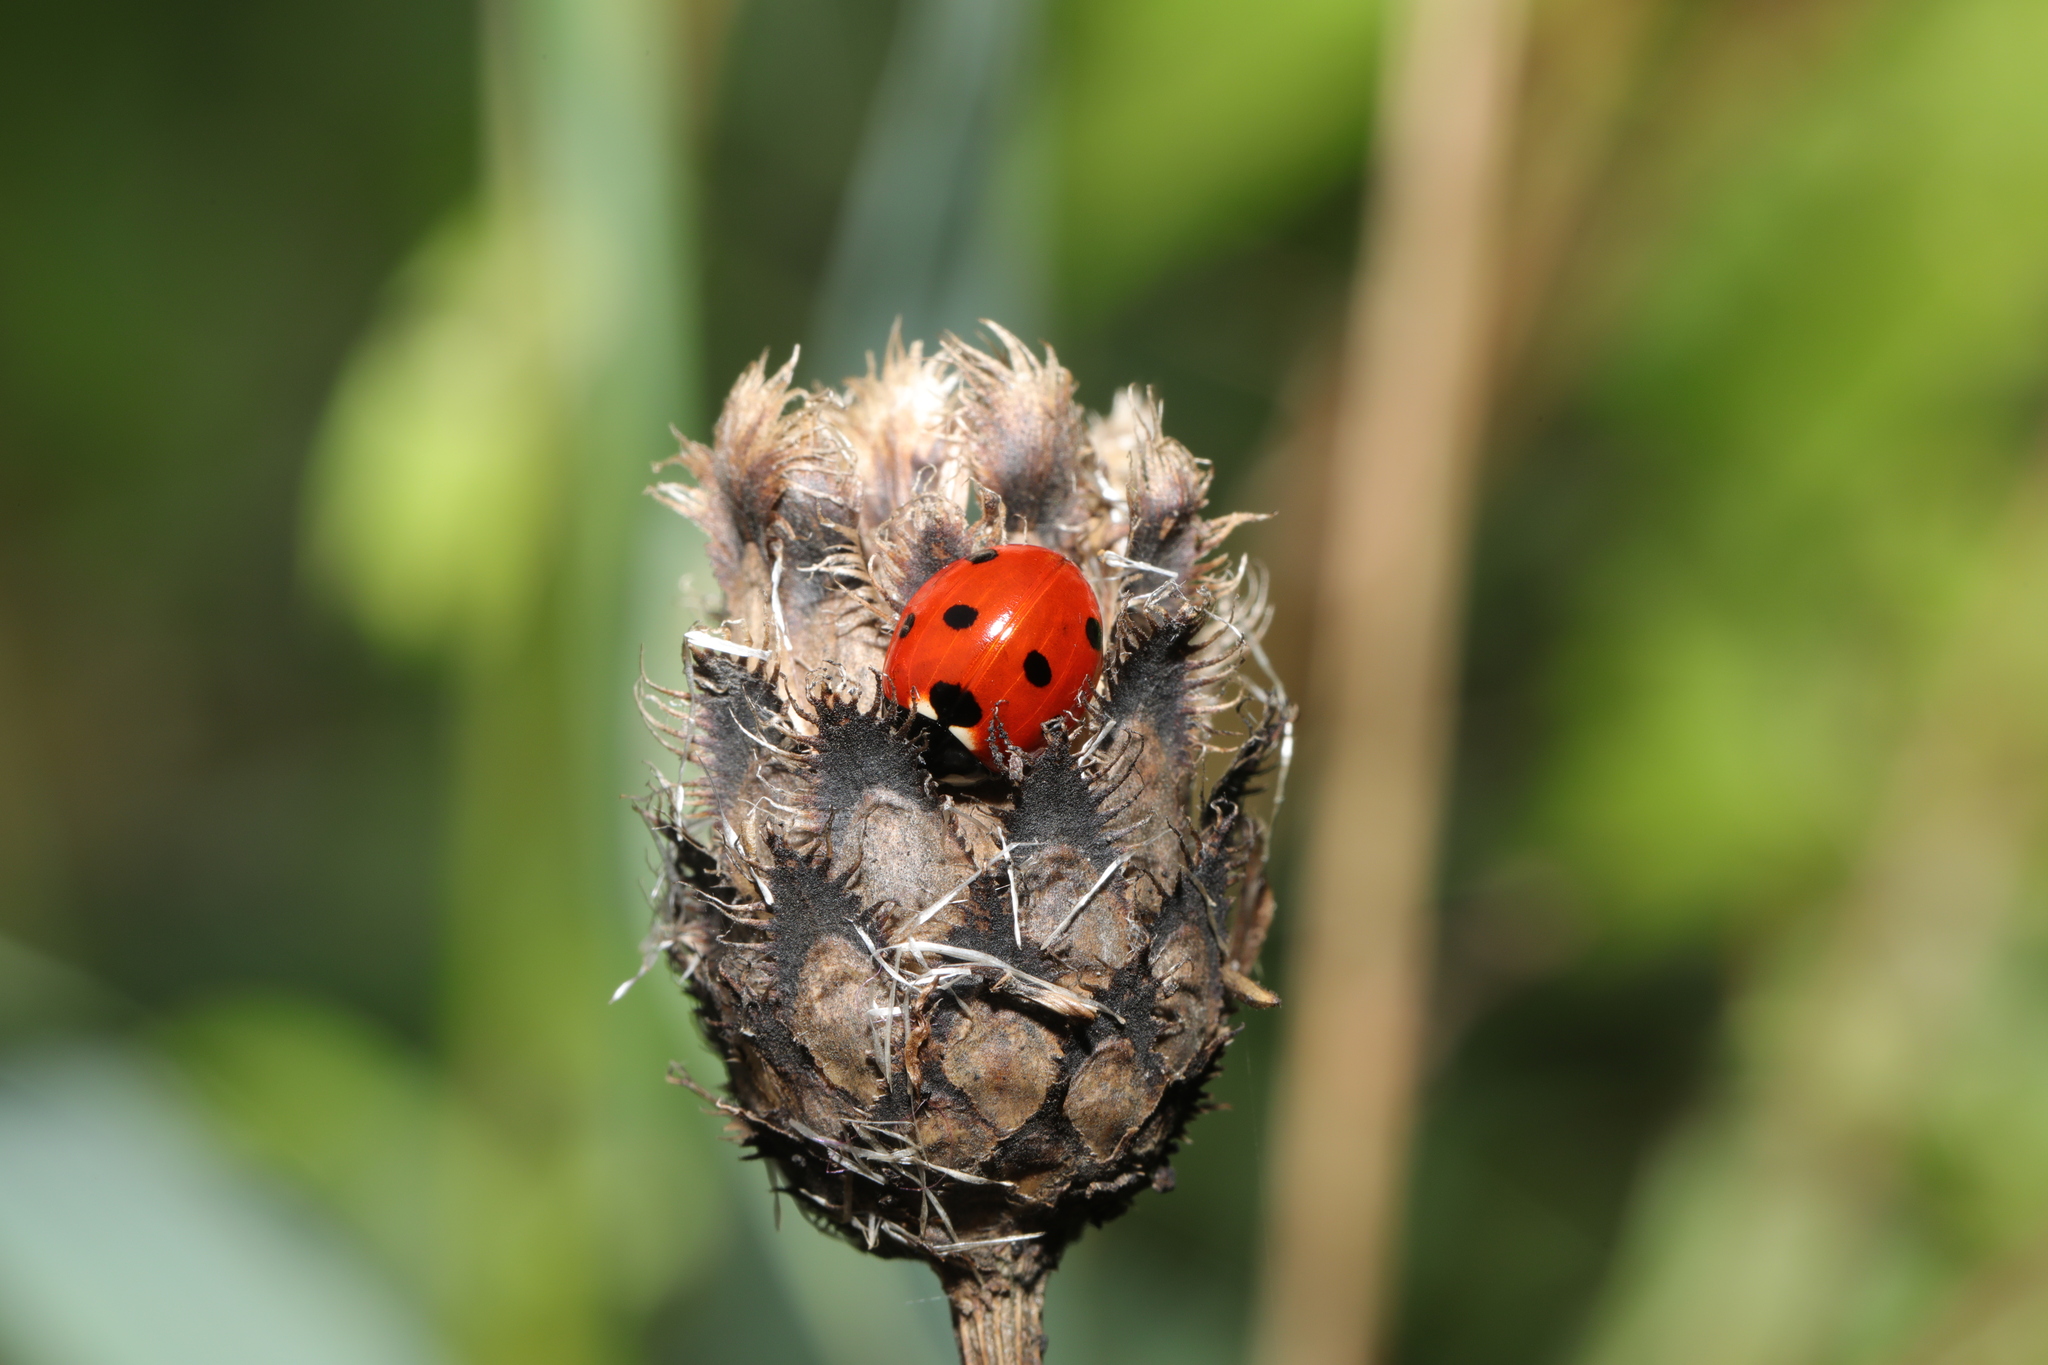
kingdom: Animalia
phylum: Arthropoda
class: Insecta
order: Coleoptera
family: Coccinellidae
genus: Coccinella
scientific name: Coccinella septempunctata
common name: Sevenspotted lady beetle
